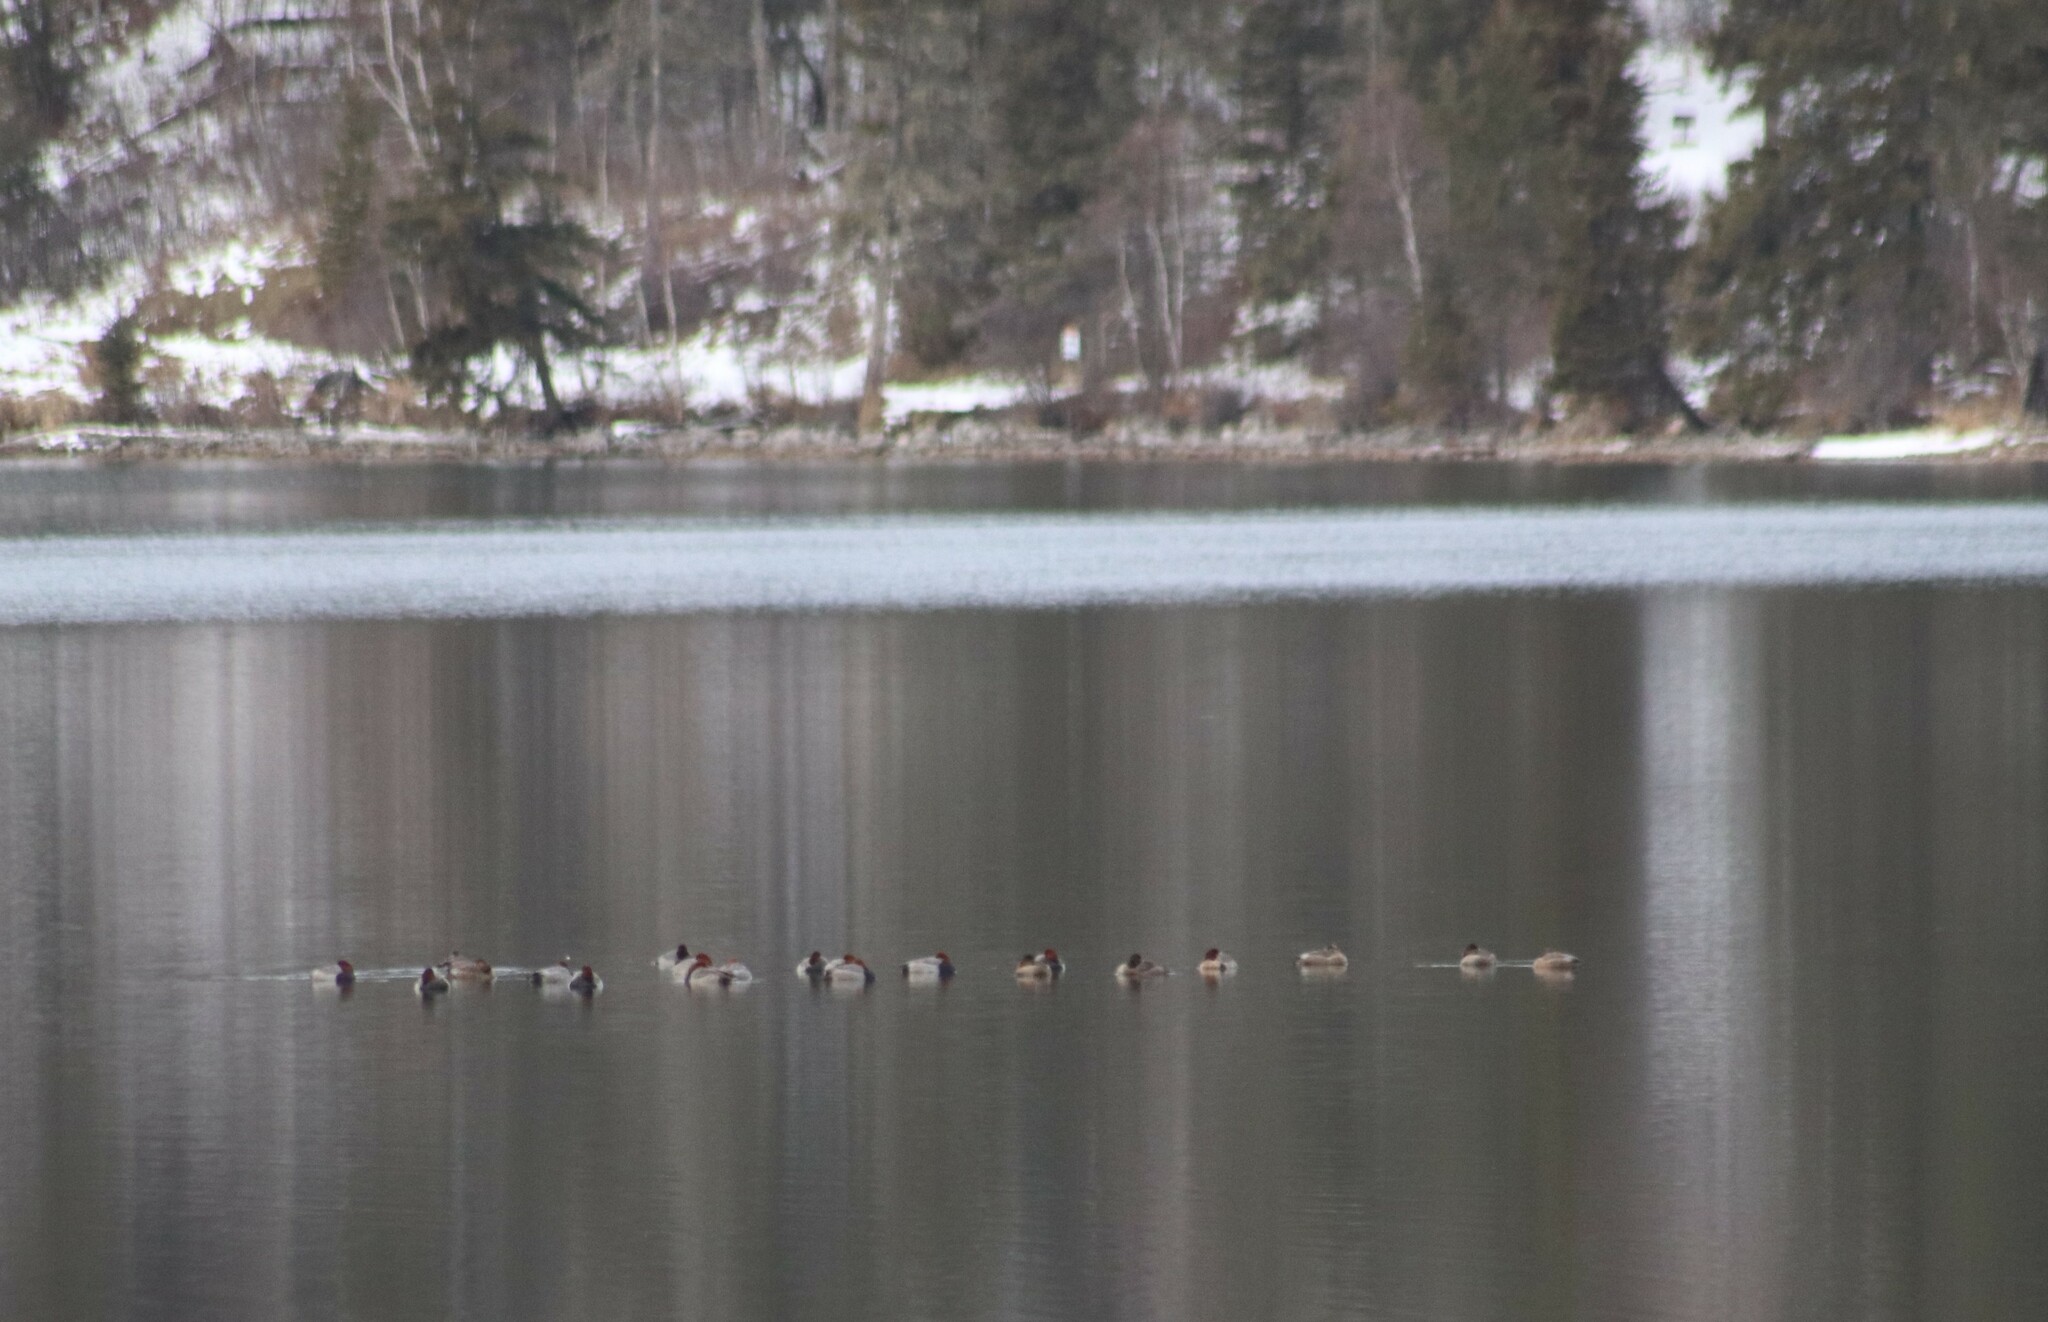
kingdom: Animalia
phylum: Chordata
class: Aves
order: Anseriformes
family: Anatidae
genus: Aythya
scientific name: Aythya americana
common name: Redhead
